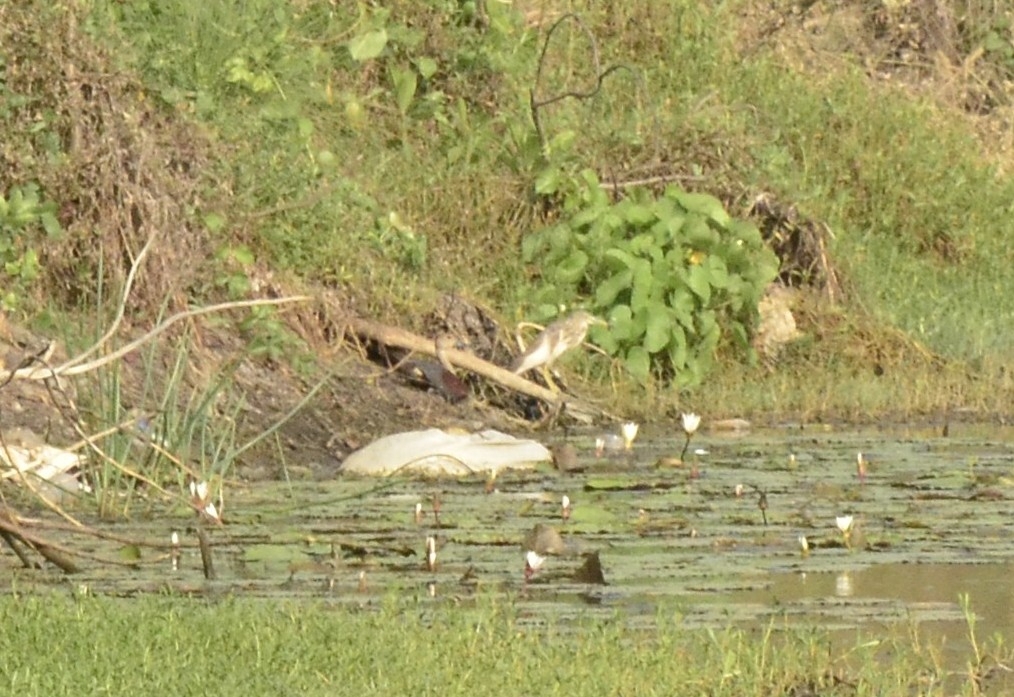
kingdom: Animalia
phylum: Chordata
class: Aves
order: Pelecaniformes
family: Ardeidae
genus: Ardeola
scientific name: Ardeola grayii
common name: Indian pond heron
